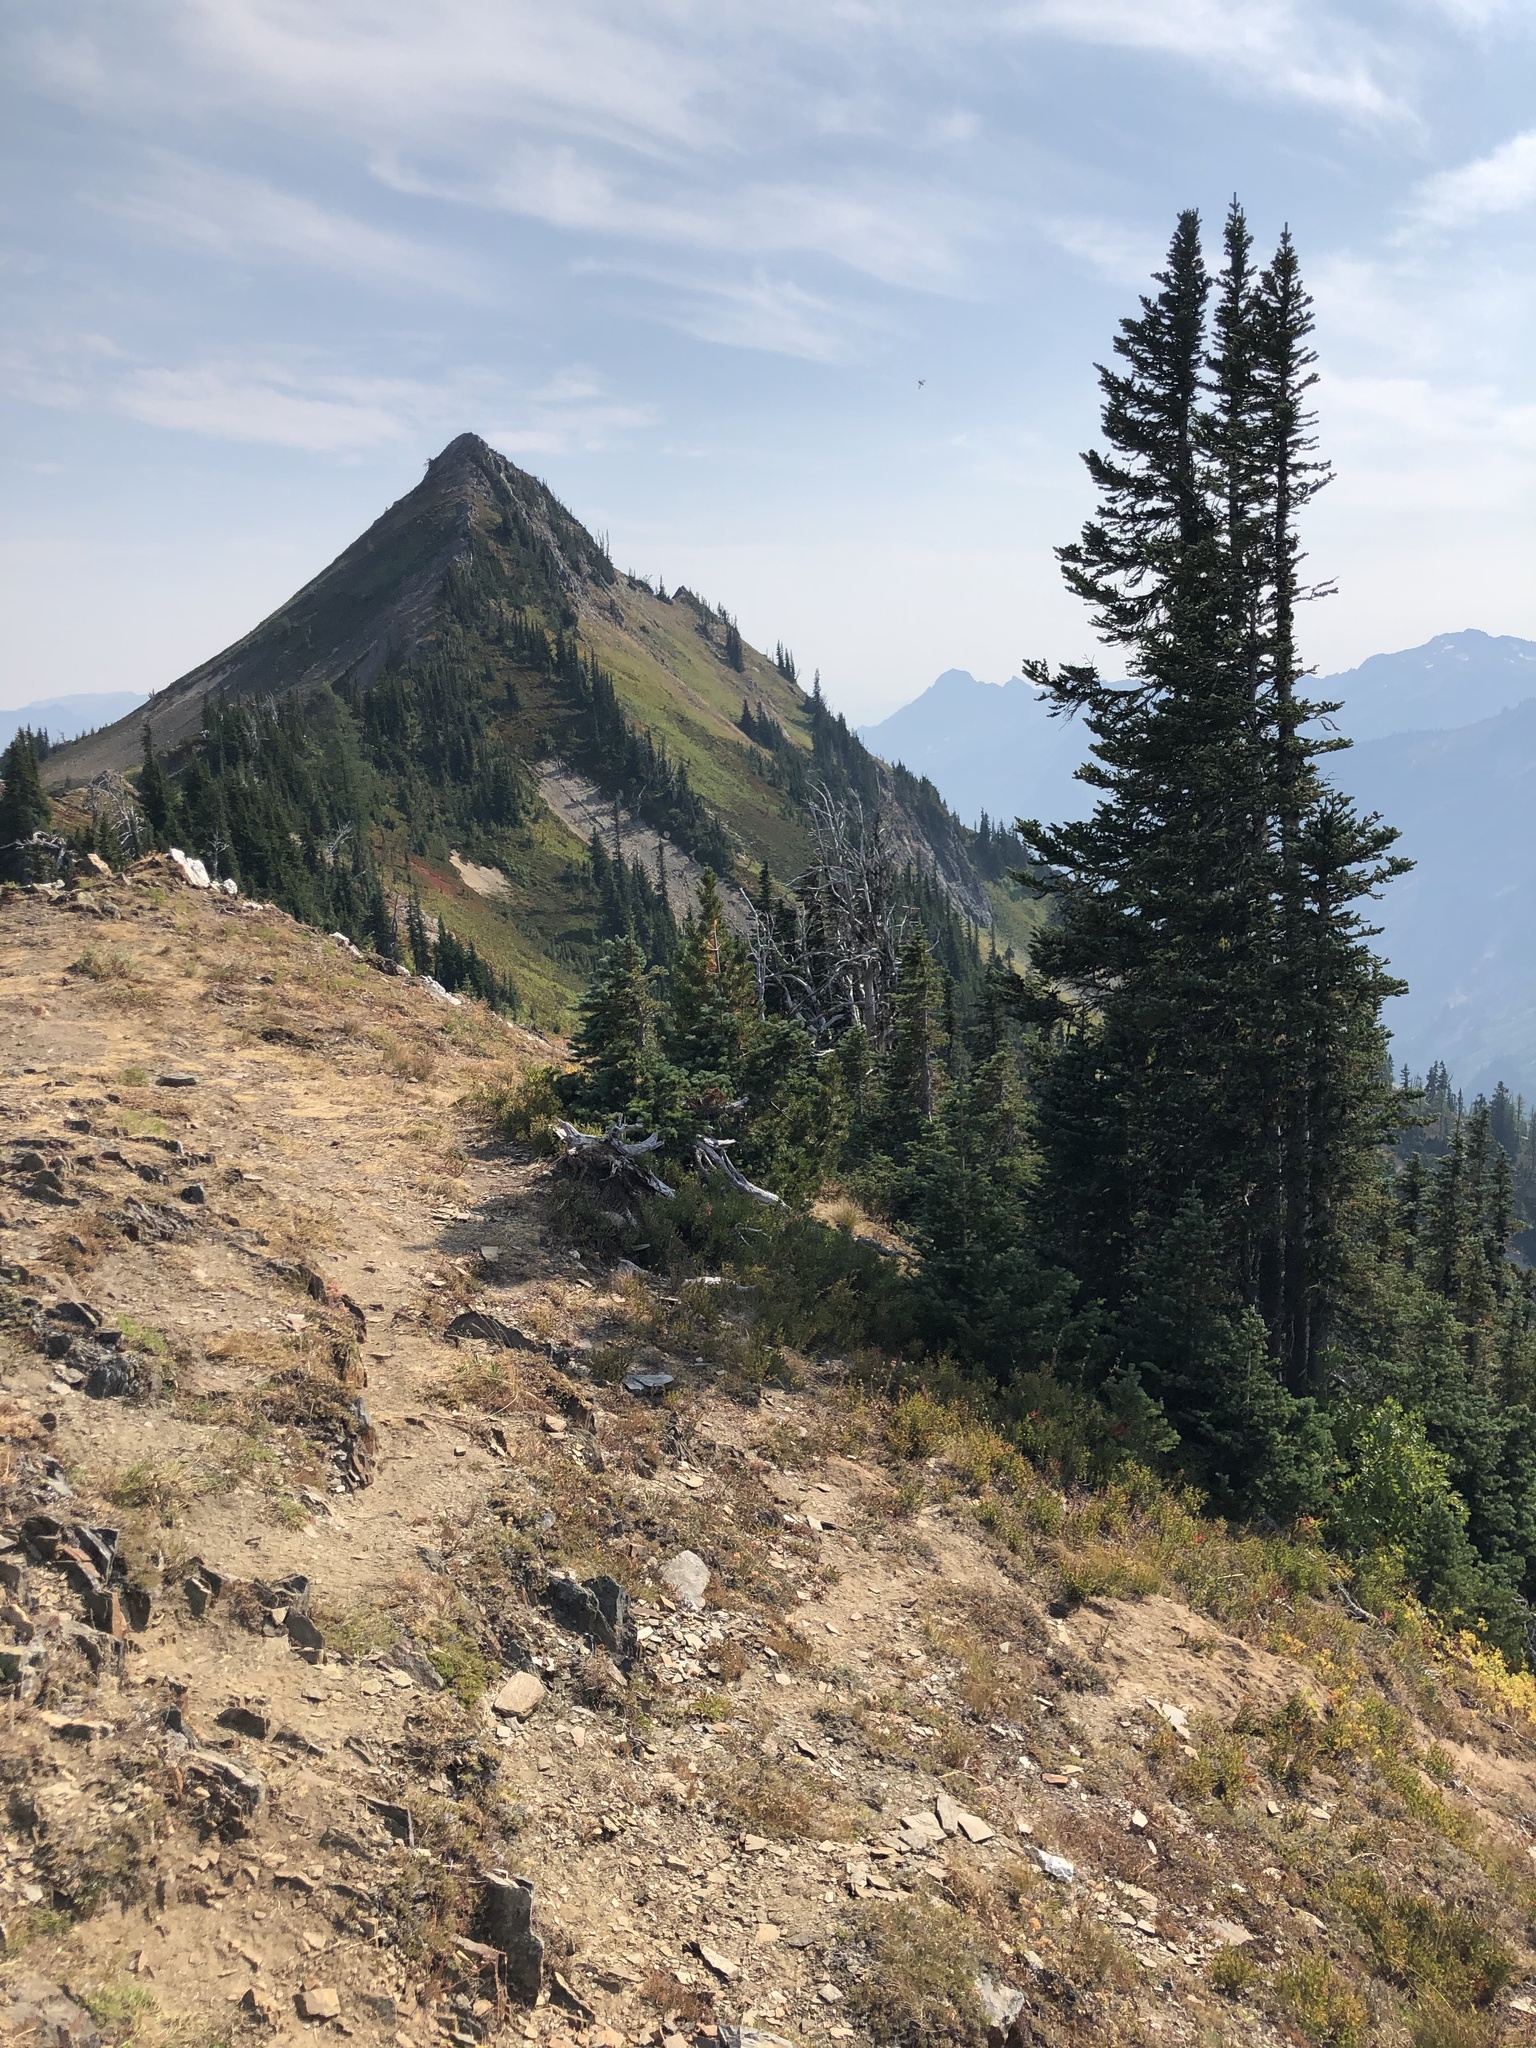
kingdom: Plantae
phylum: Tracheophyta
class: Pinopsida
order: Pinales
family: Pinaceae
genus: Abies
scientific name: Abies lasiocarpa
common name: Subalpine fir
